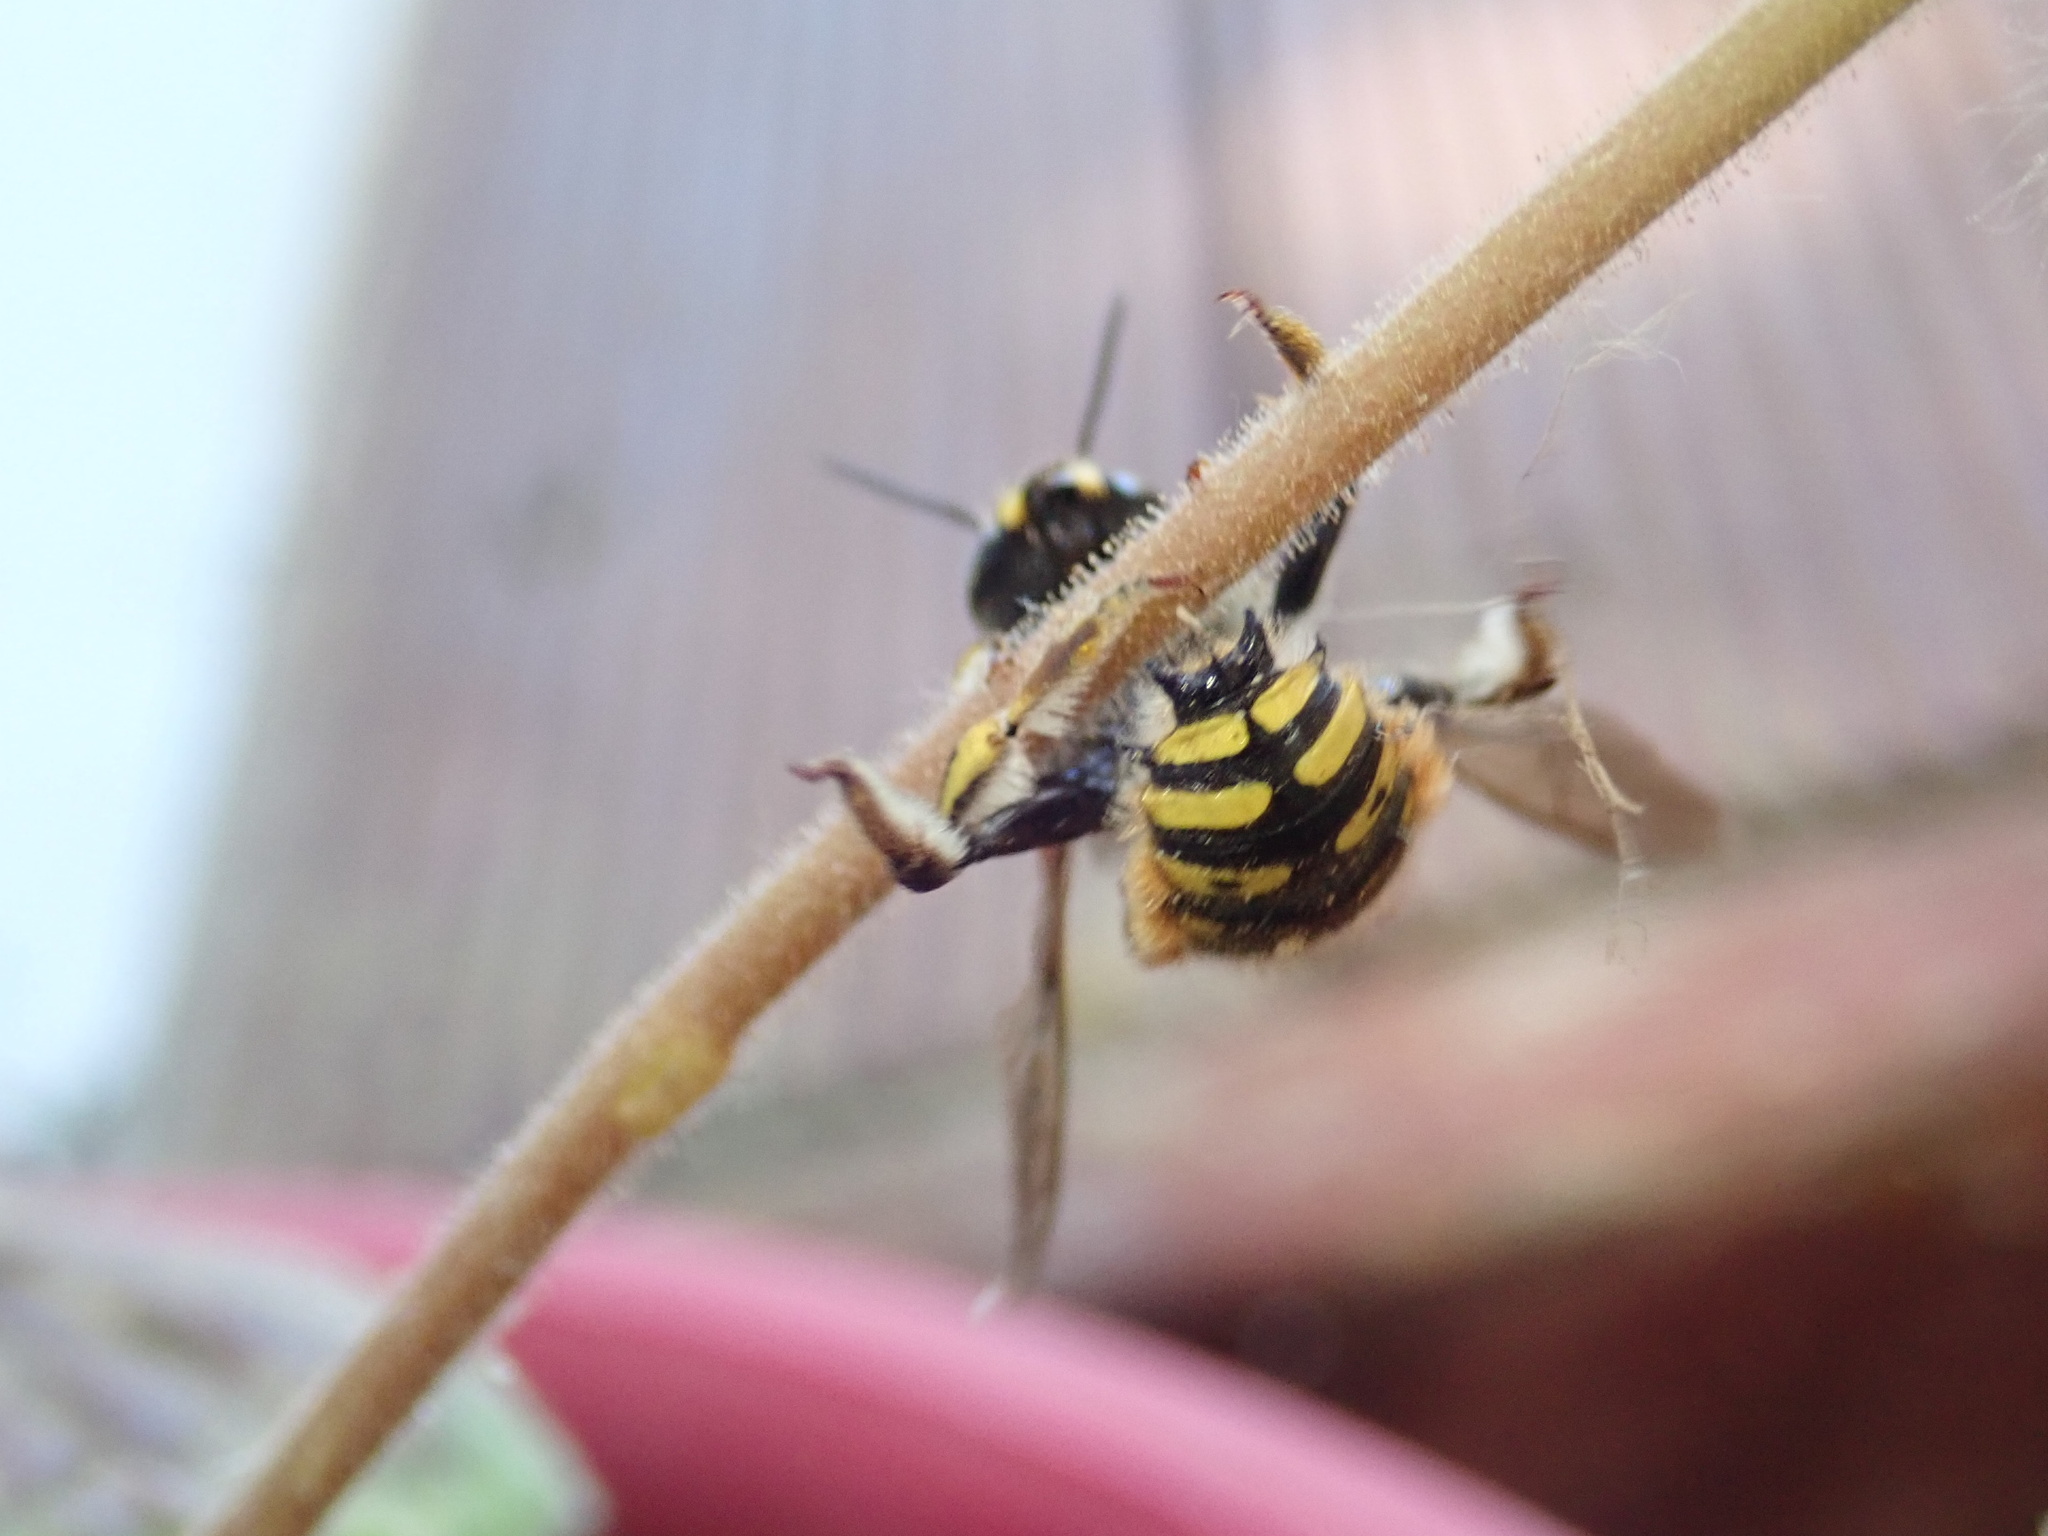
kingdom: Animalia
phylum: Arthropoda
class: Insecta
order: Hymenoptera
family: Megachilidae
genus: Anthidium
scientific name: Anthidium manicatum
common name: Wool carder bee
